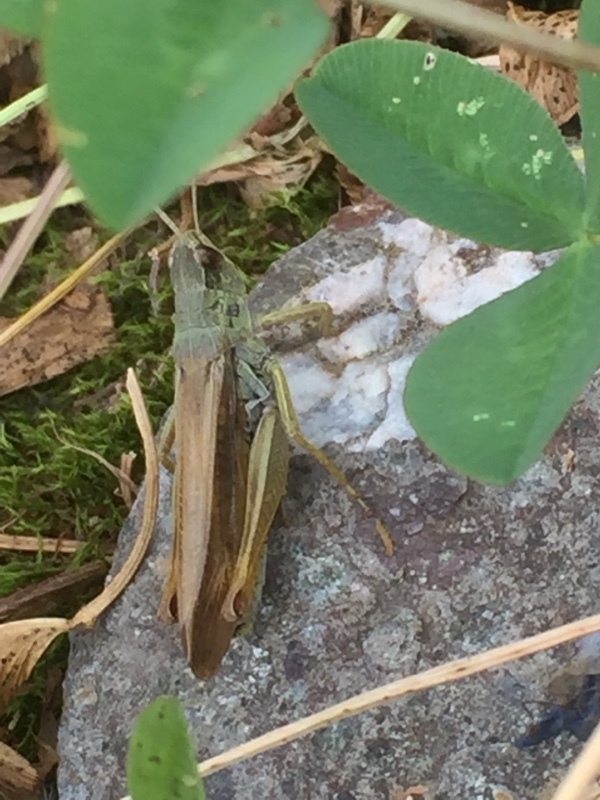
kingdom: Animalia
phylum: Arthropoda
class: Insecta
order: Orthoptera
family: Acrididae
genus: Stauroderus
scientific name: Stauroderus scalaris
